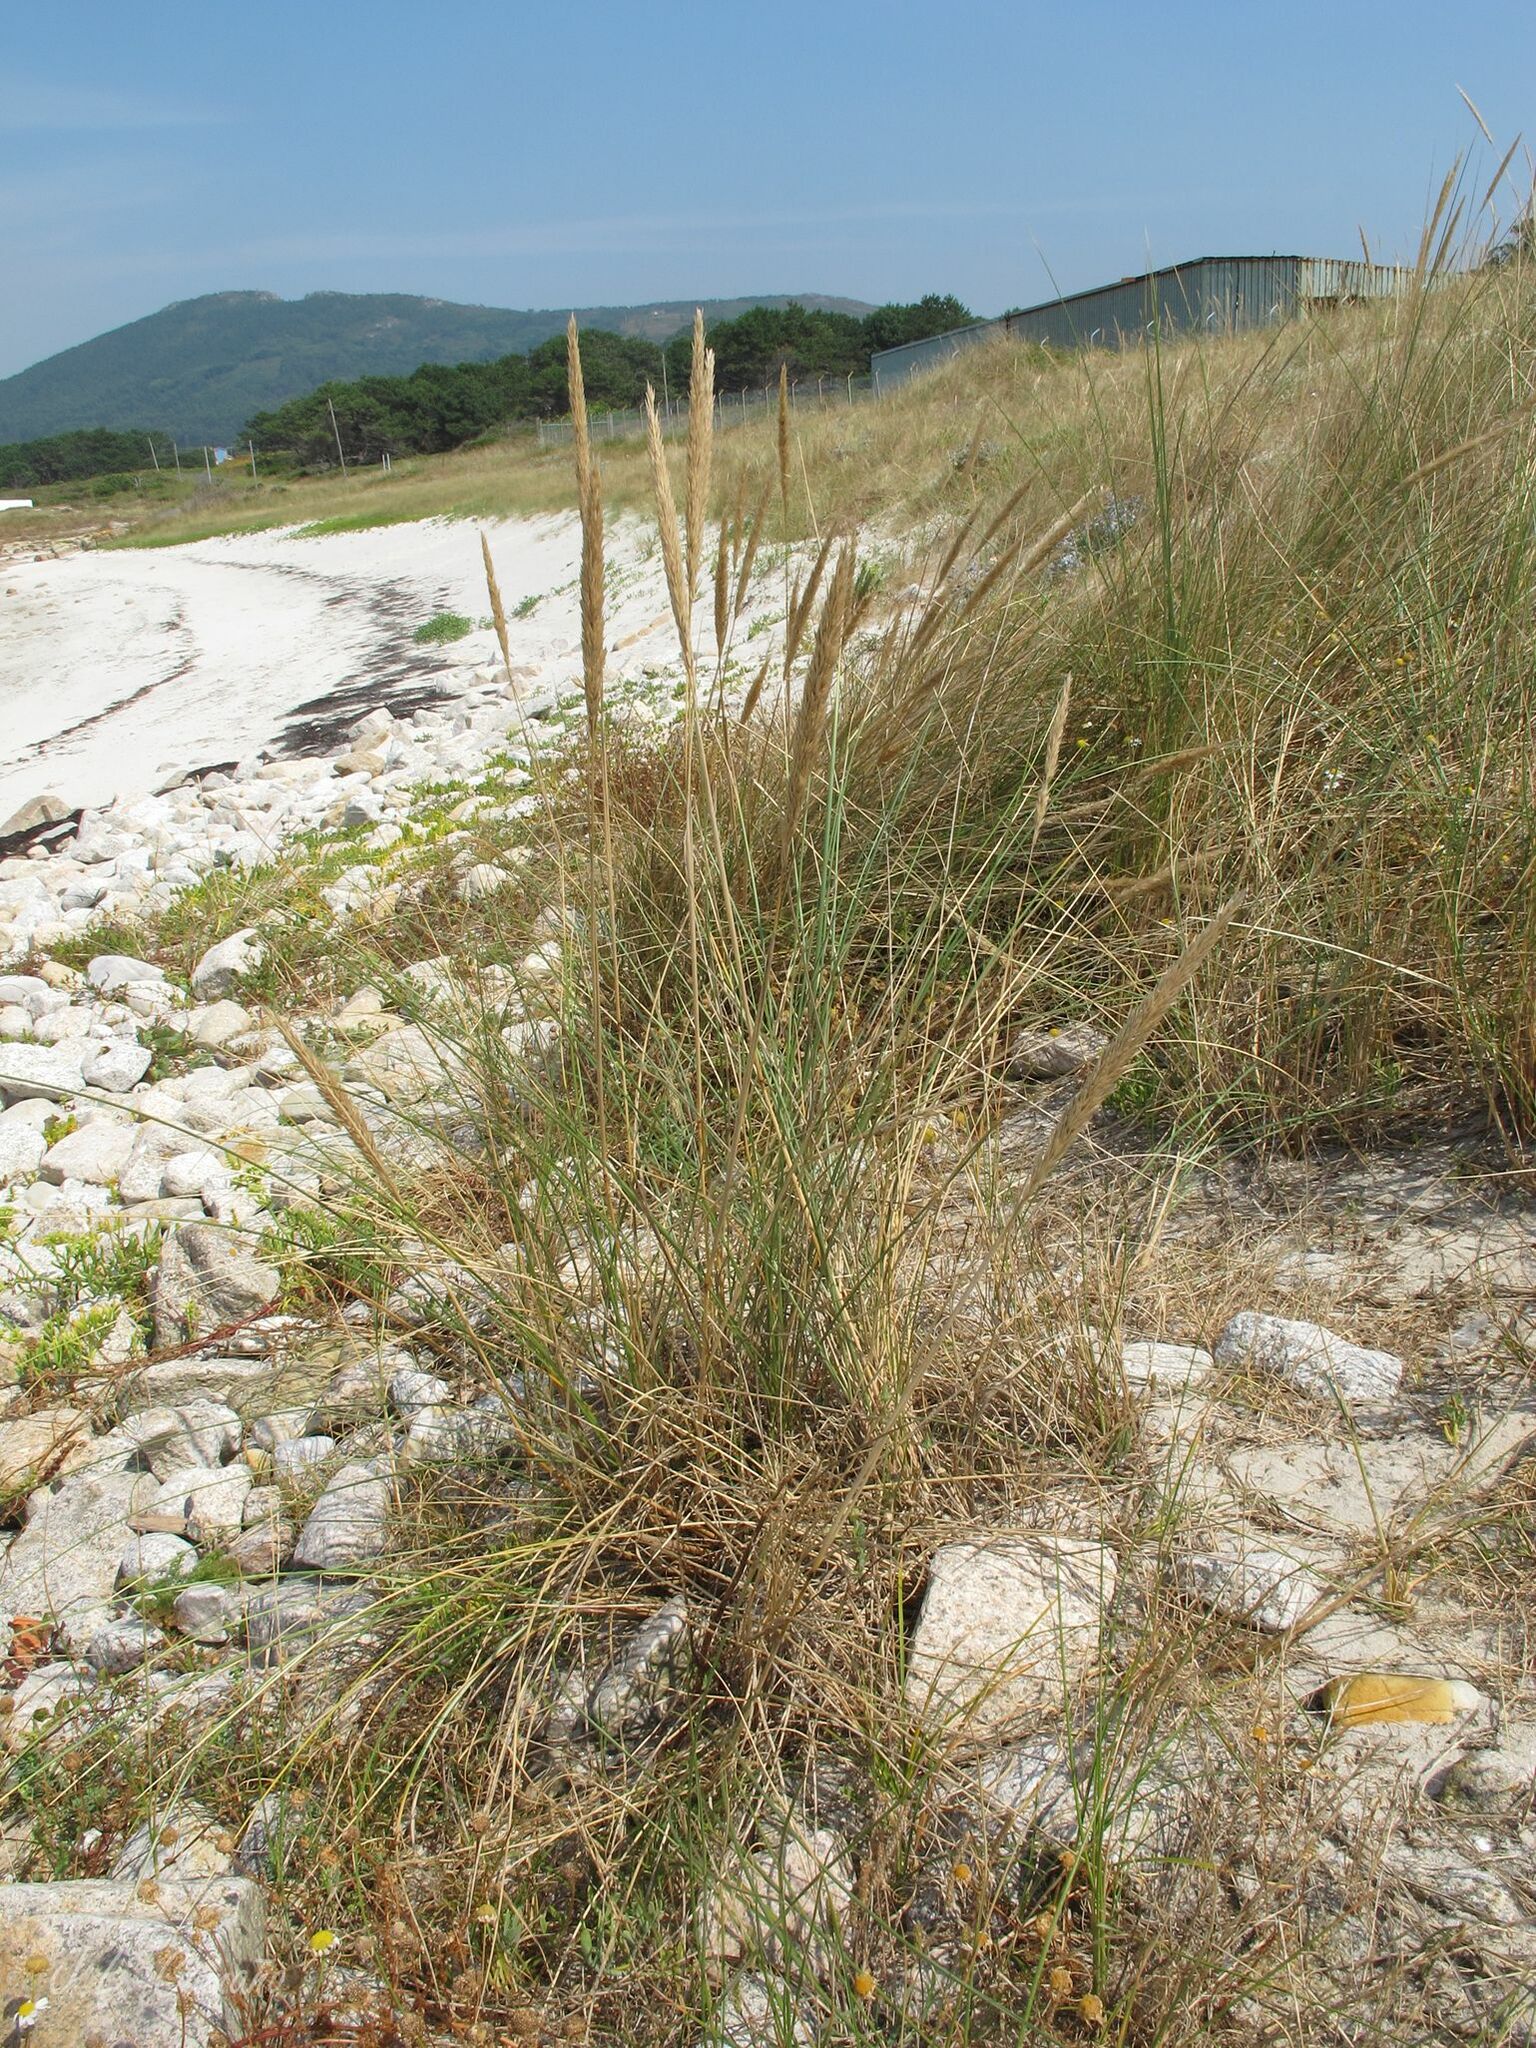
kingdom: Plantae
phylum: Tracheophyta
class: Liliopsida
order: Poales
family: Poaceae
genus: Calamagrostis
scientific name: Calamagrostis arenaria
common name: European beachgrass
